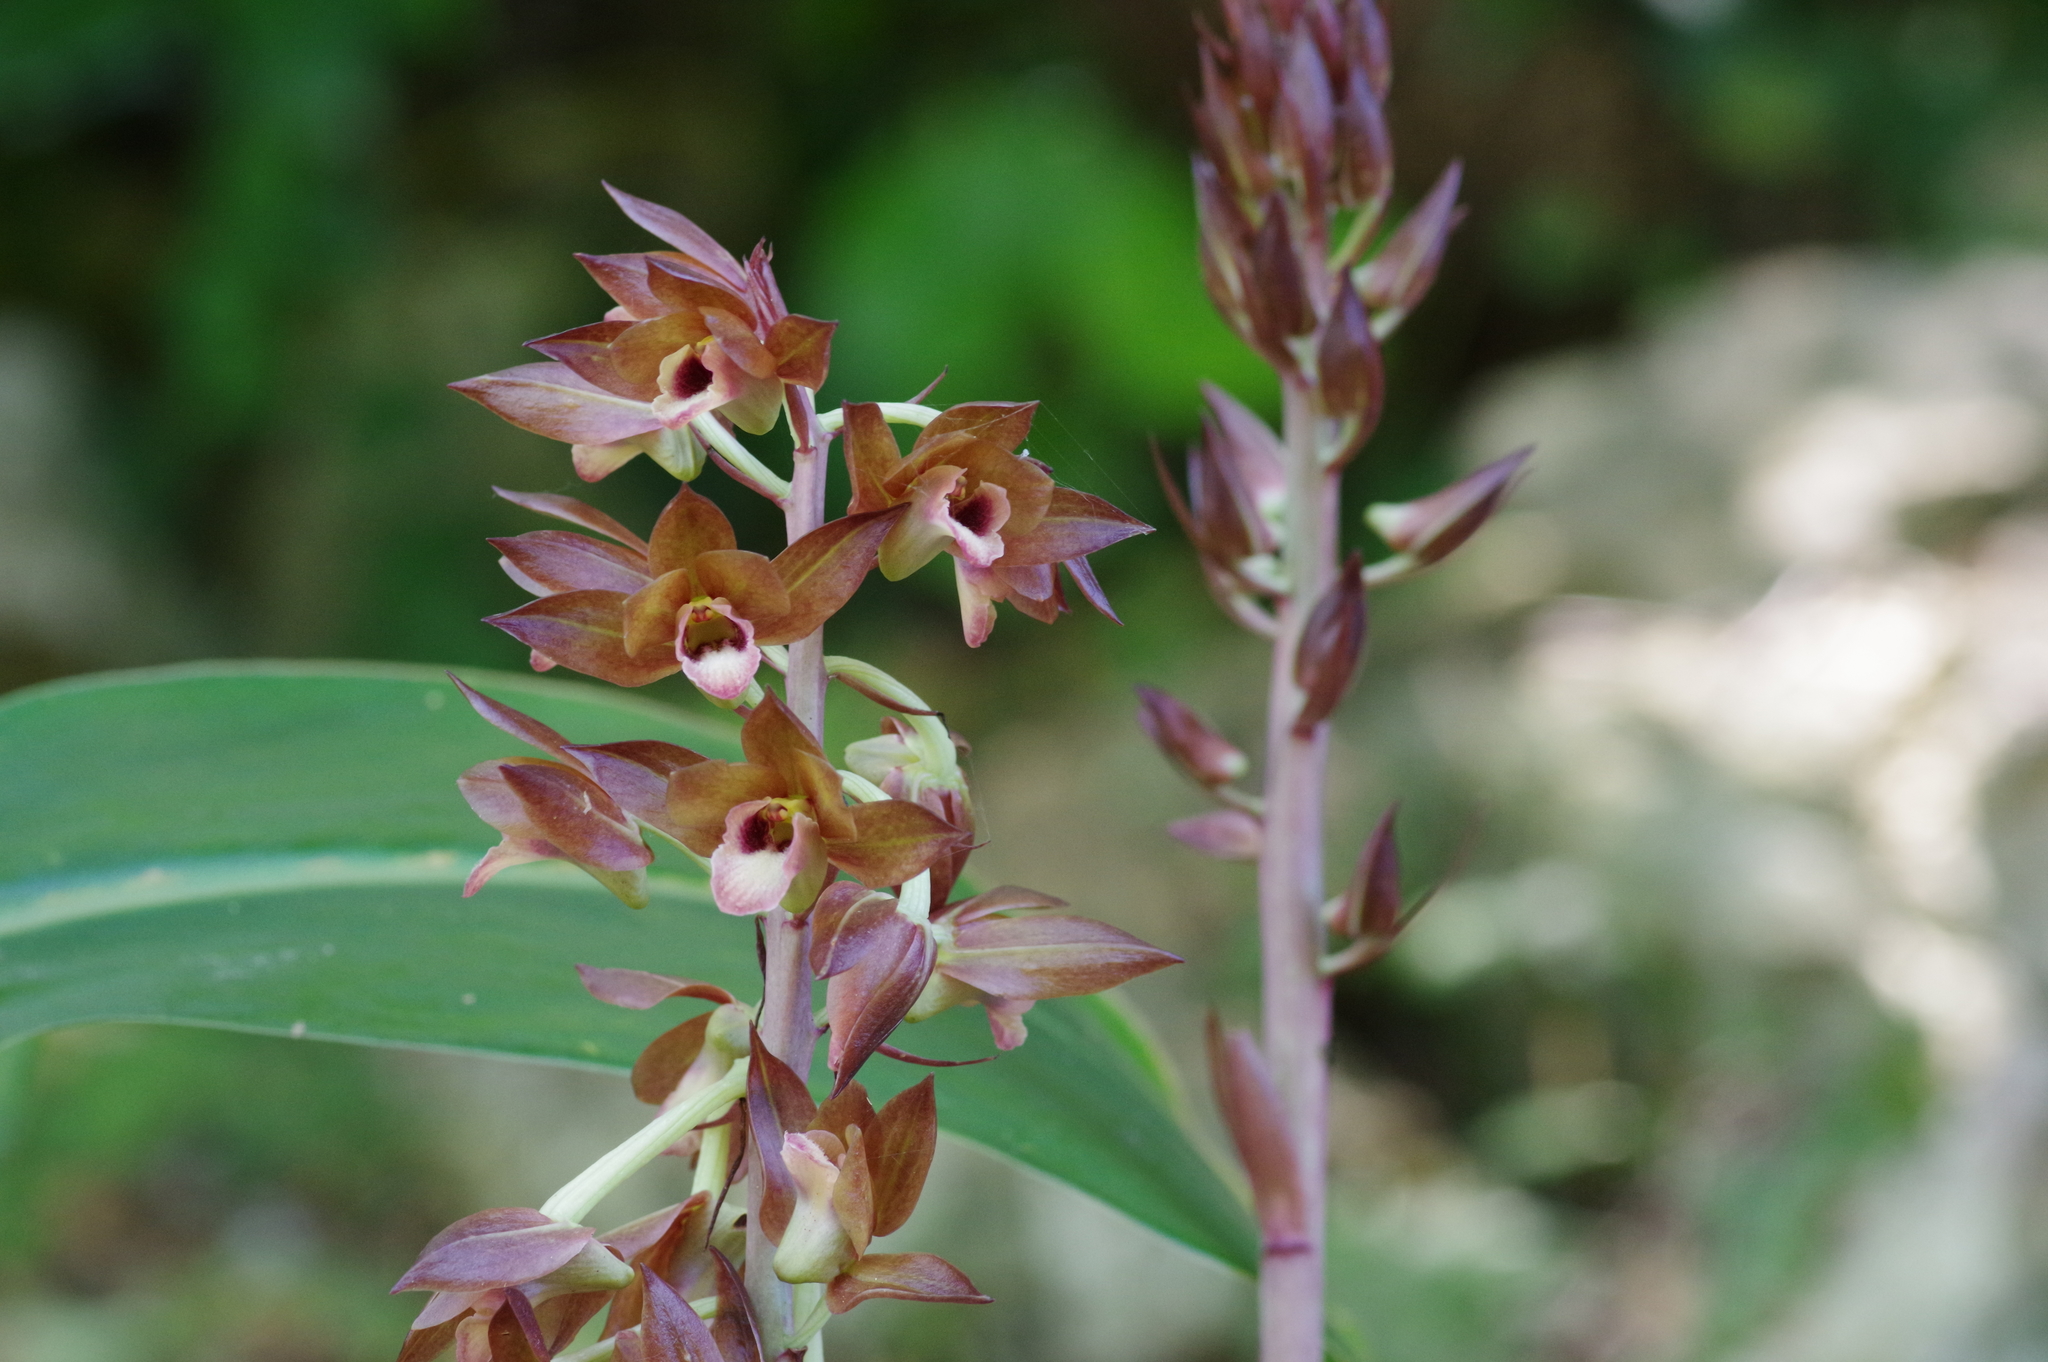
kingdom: Plantae
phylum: Tracheophyta
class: Liliopsida
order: Asparagales
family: Orchidaceae
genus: Eulophia
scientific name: Eulophia zollingeri
